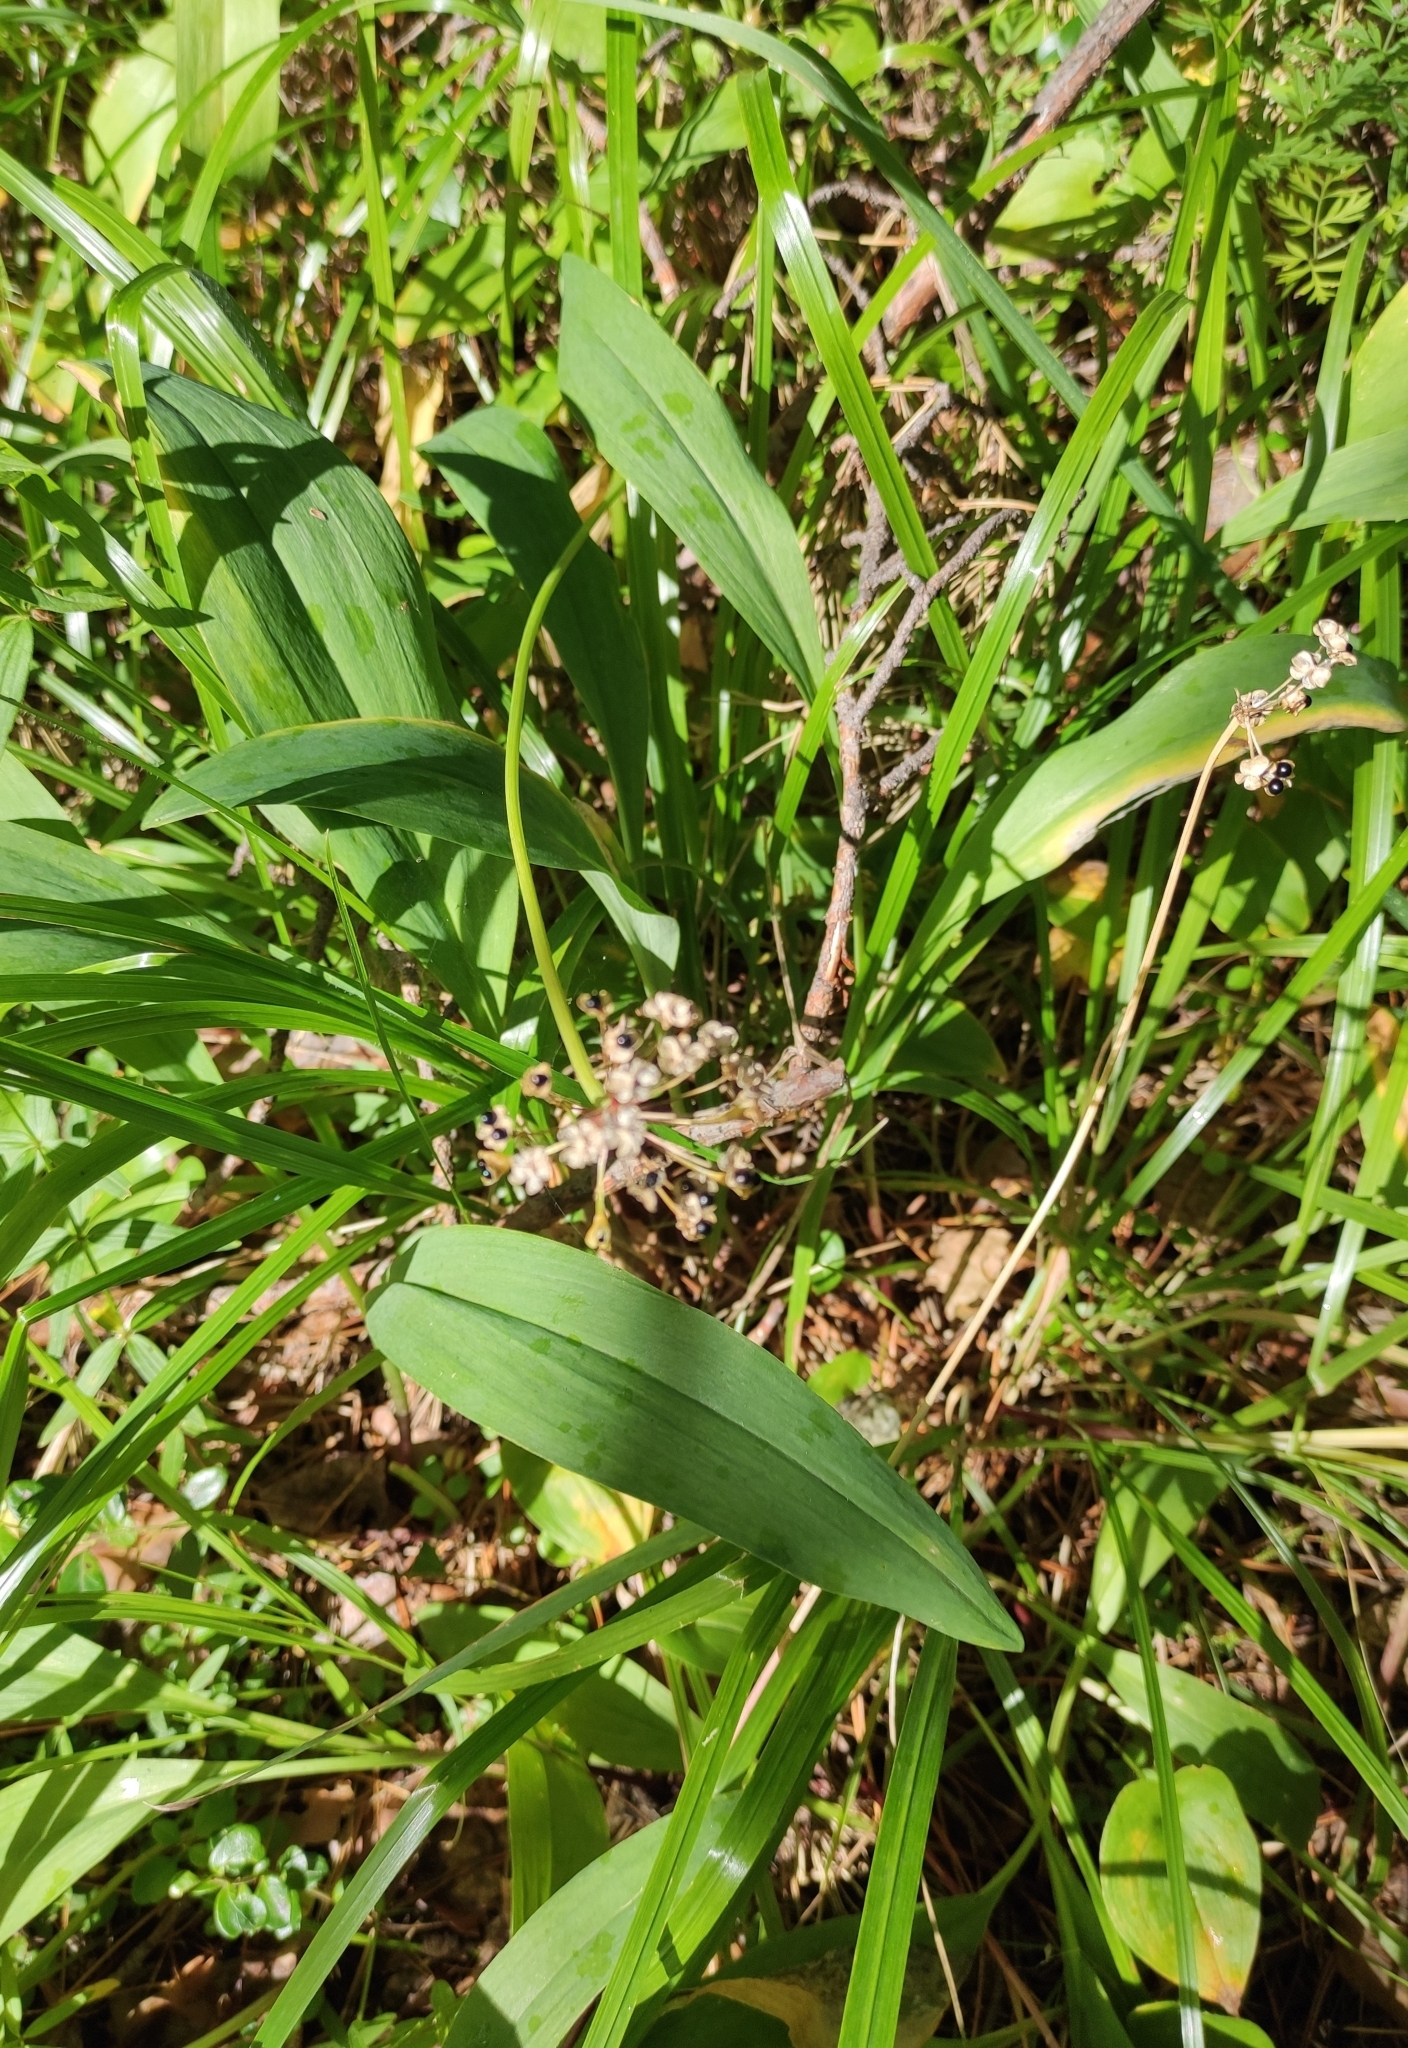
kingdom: Plantae
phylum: Tracheophyta
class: Liliopsida
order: Asparagales
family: Amaryllidaceae
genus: Allium
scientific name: Allium microdictyon
